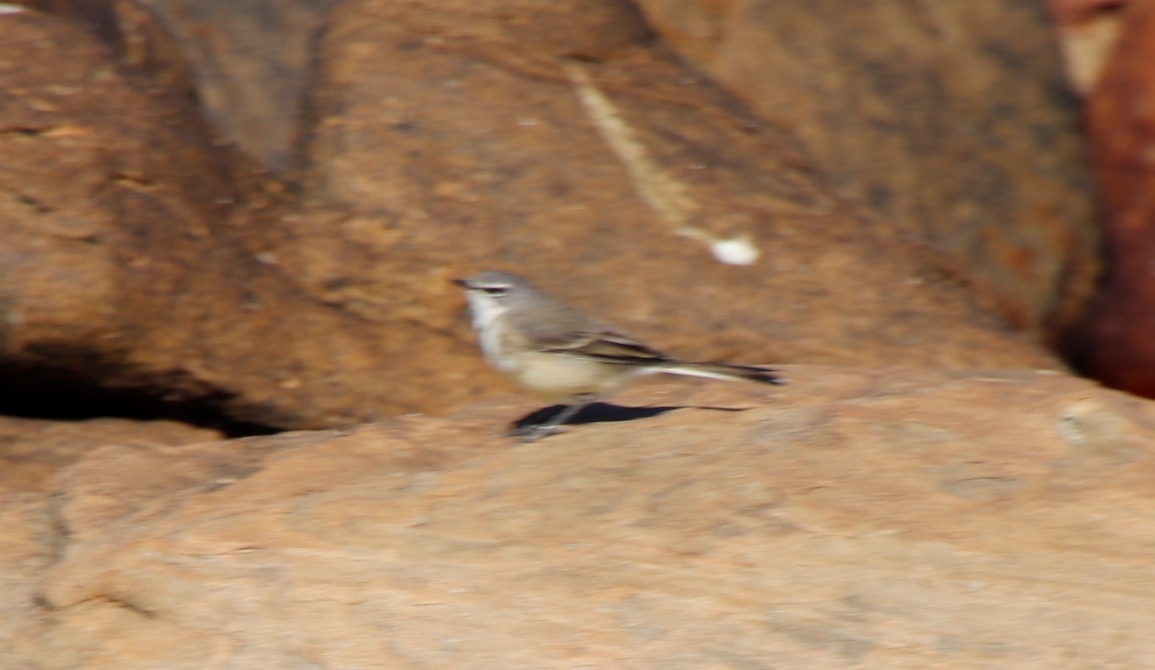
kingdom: Animalia
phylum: Chordata
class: Aves
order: Passeriformes
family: Motacillidae
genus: Motacilla
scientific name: Motacilla capensis
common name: Cape wagtail
